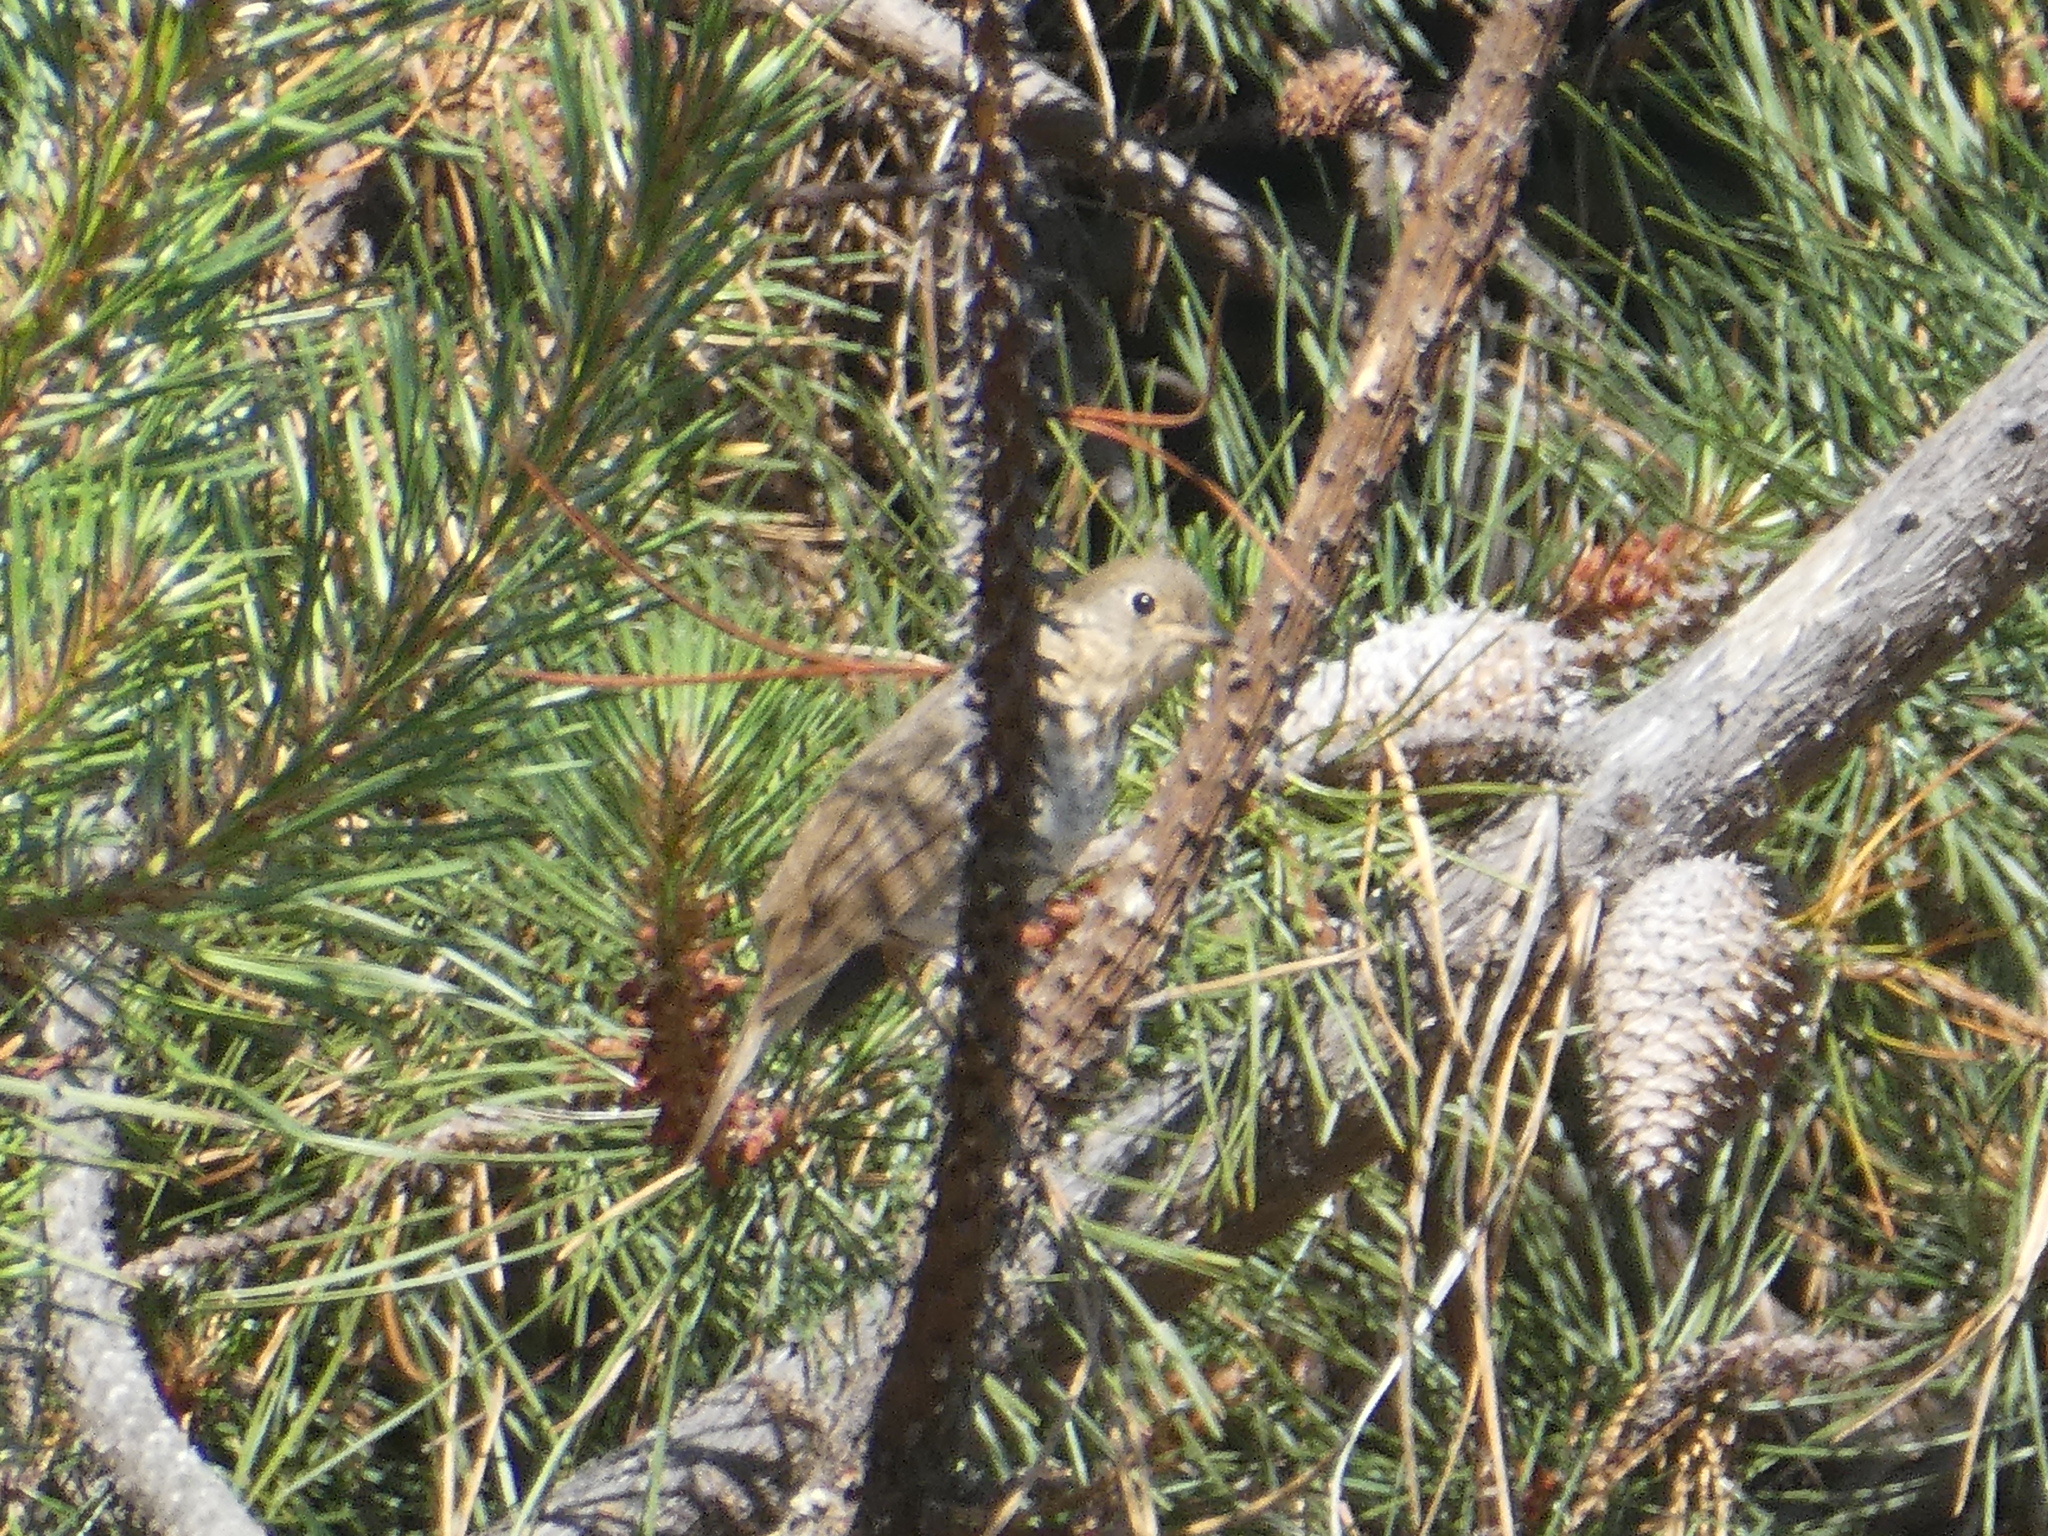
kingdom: Animalia
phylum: Chordata
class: Aves
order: Passeriformes
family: Turdidae
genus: Catharus
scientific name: Catharus ustulatus
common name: Swainson's thrush
